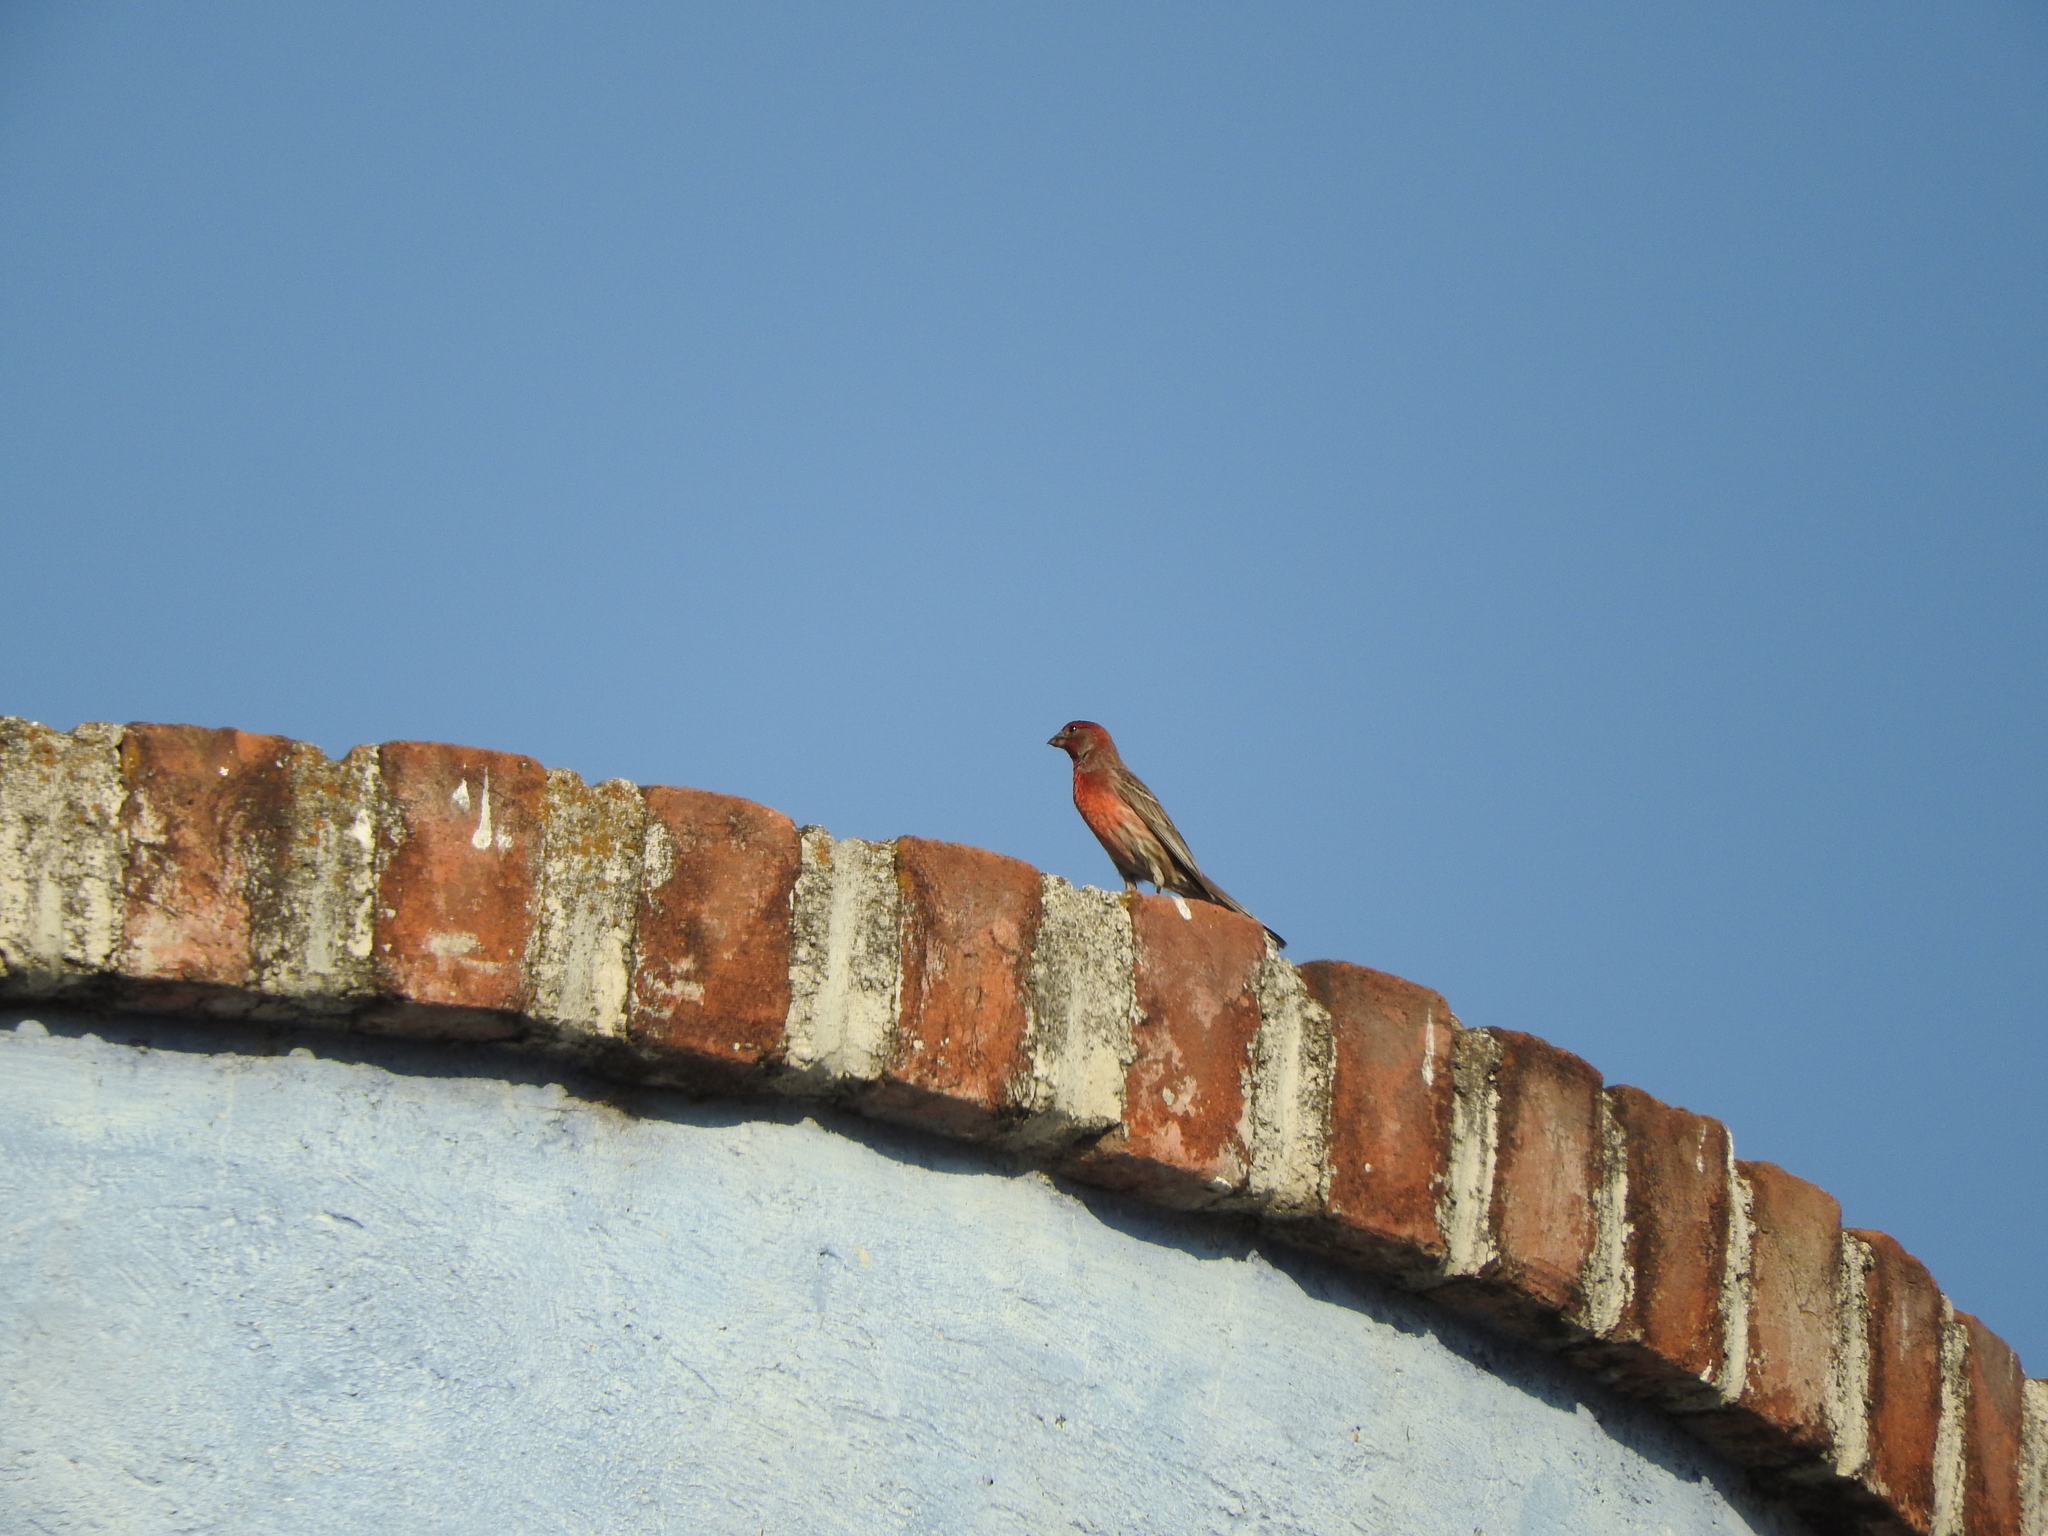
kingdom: Animalia
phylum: Chordata
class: Aves
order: Passeriformes
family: Fringillidae
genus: Haemorhous
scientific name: Haemorhous mexicanus
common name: House finch
